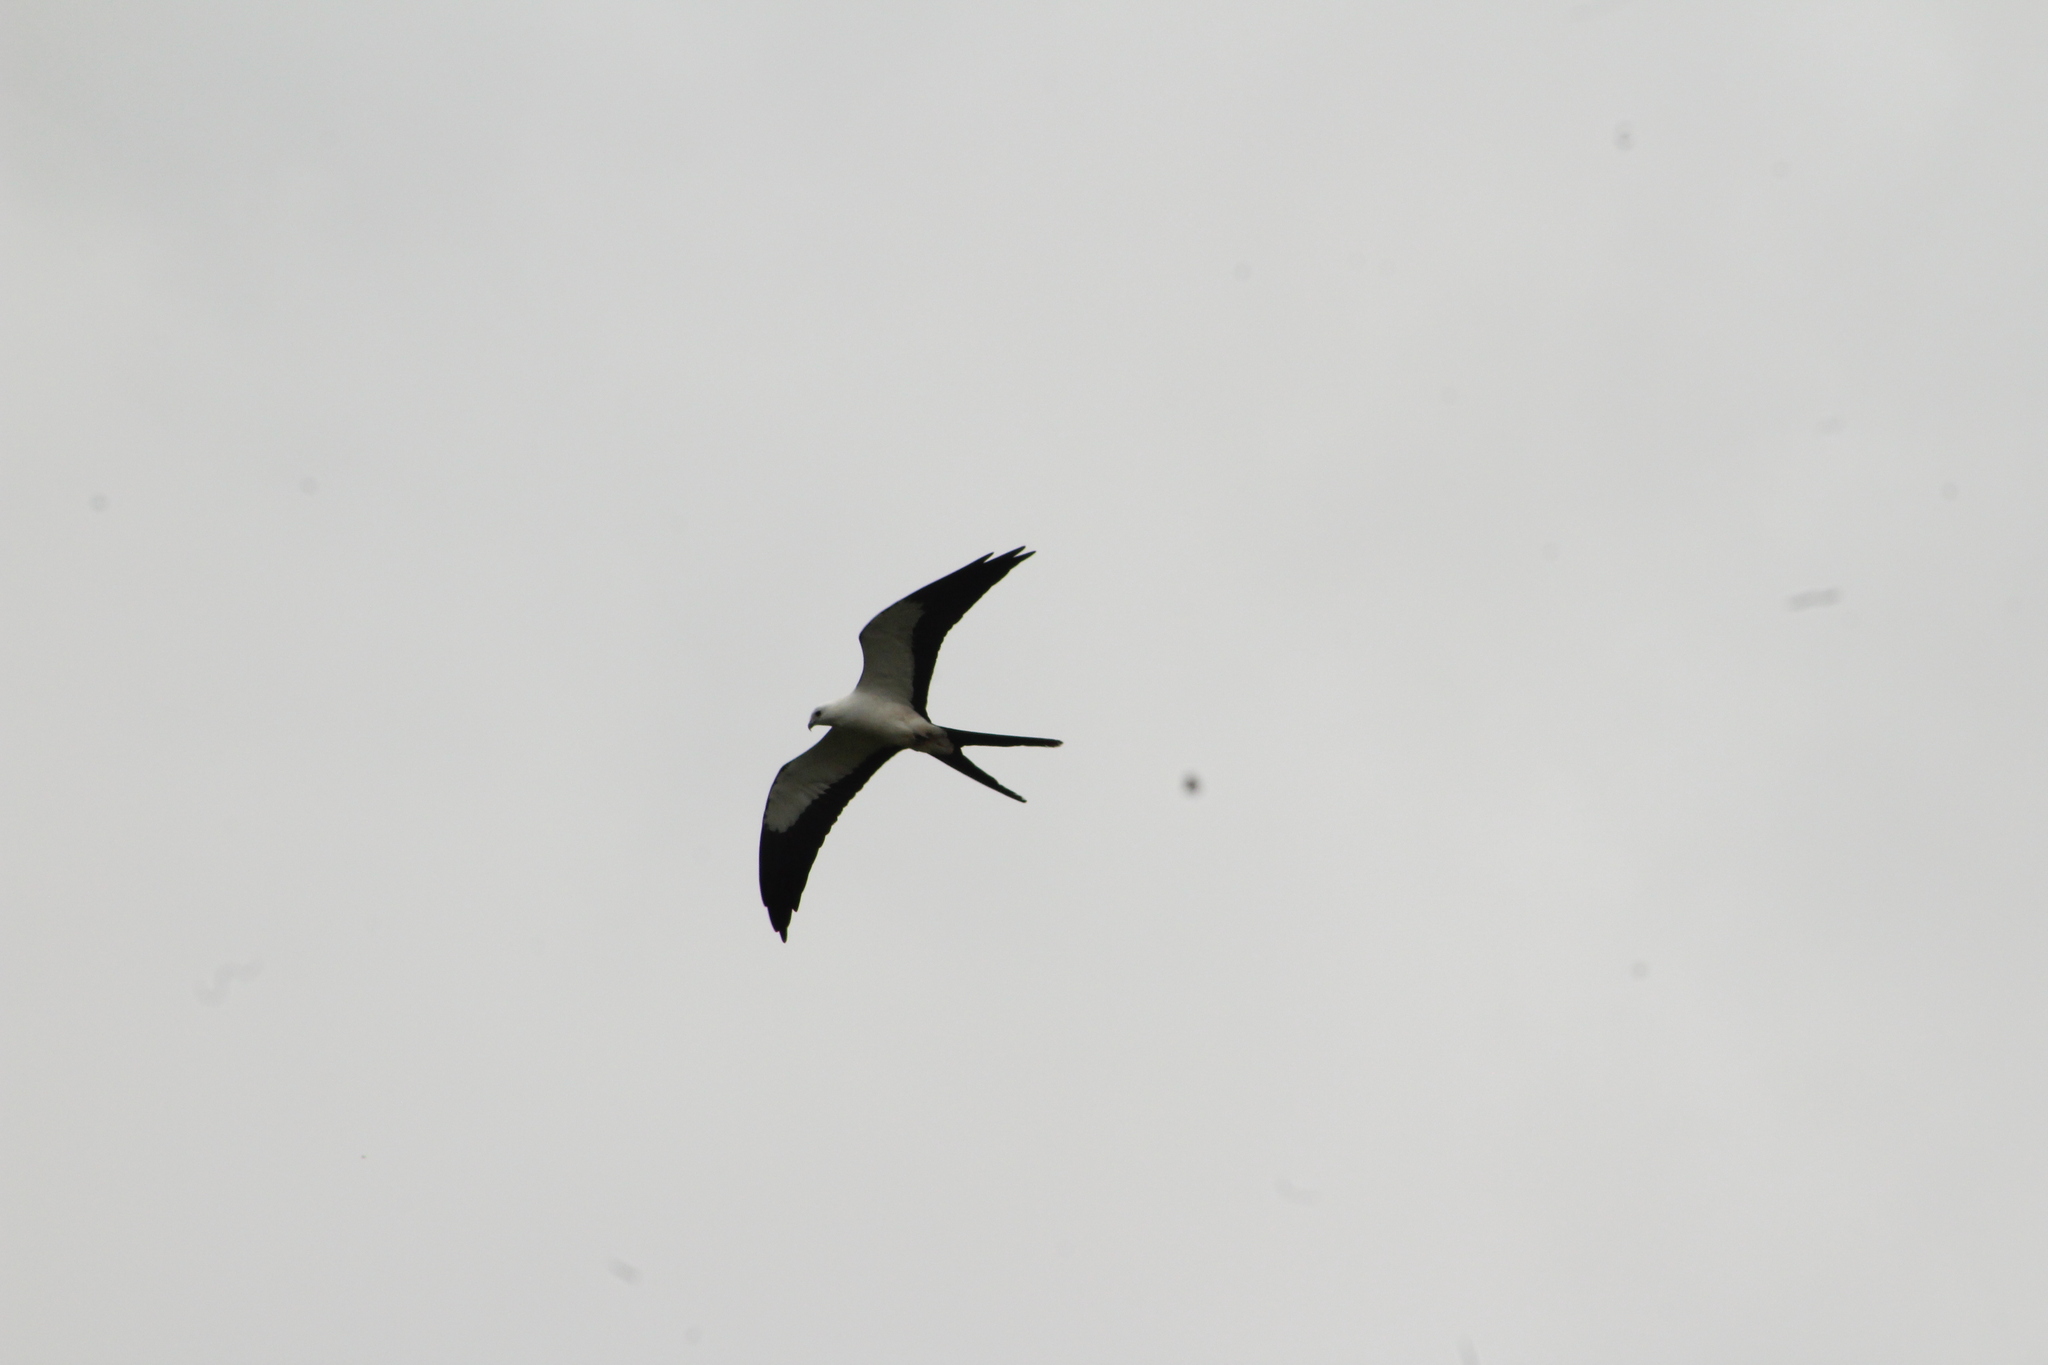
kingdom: Animalia
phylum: Chordata
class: Aves
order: Accipitriformes
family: Accipitridae
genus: Elanoides
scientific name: Elanoides forficatus
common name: Swallow-tailed kite
